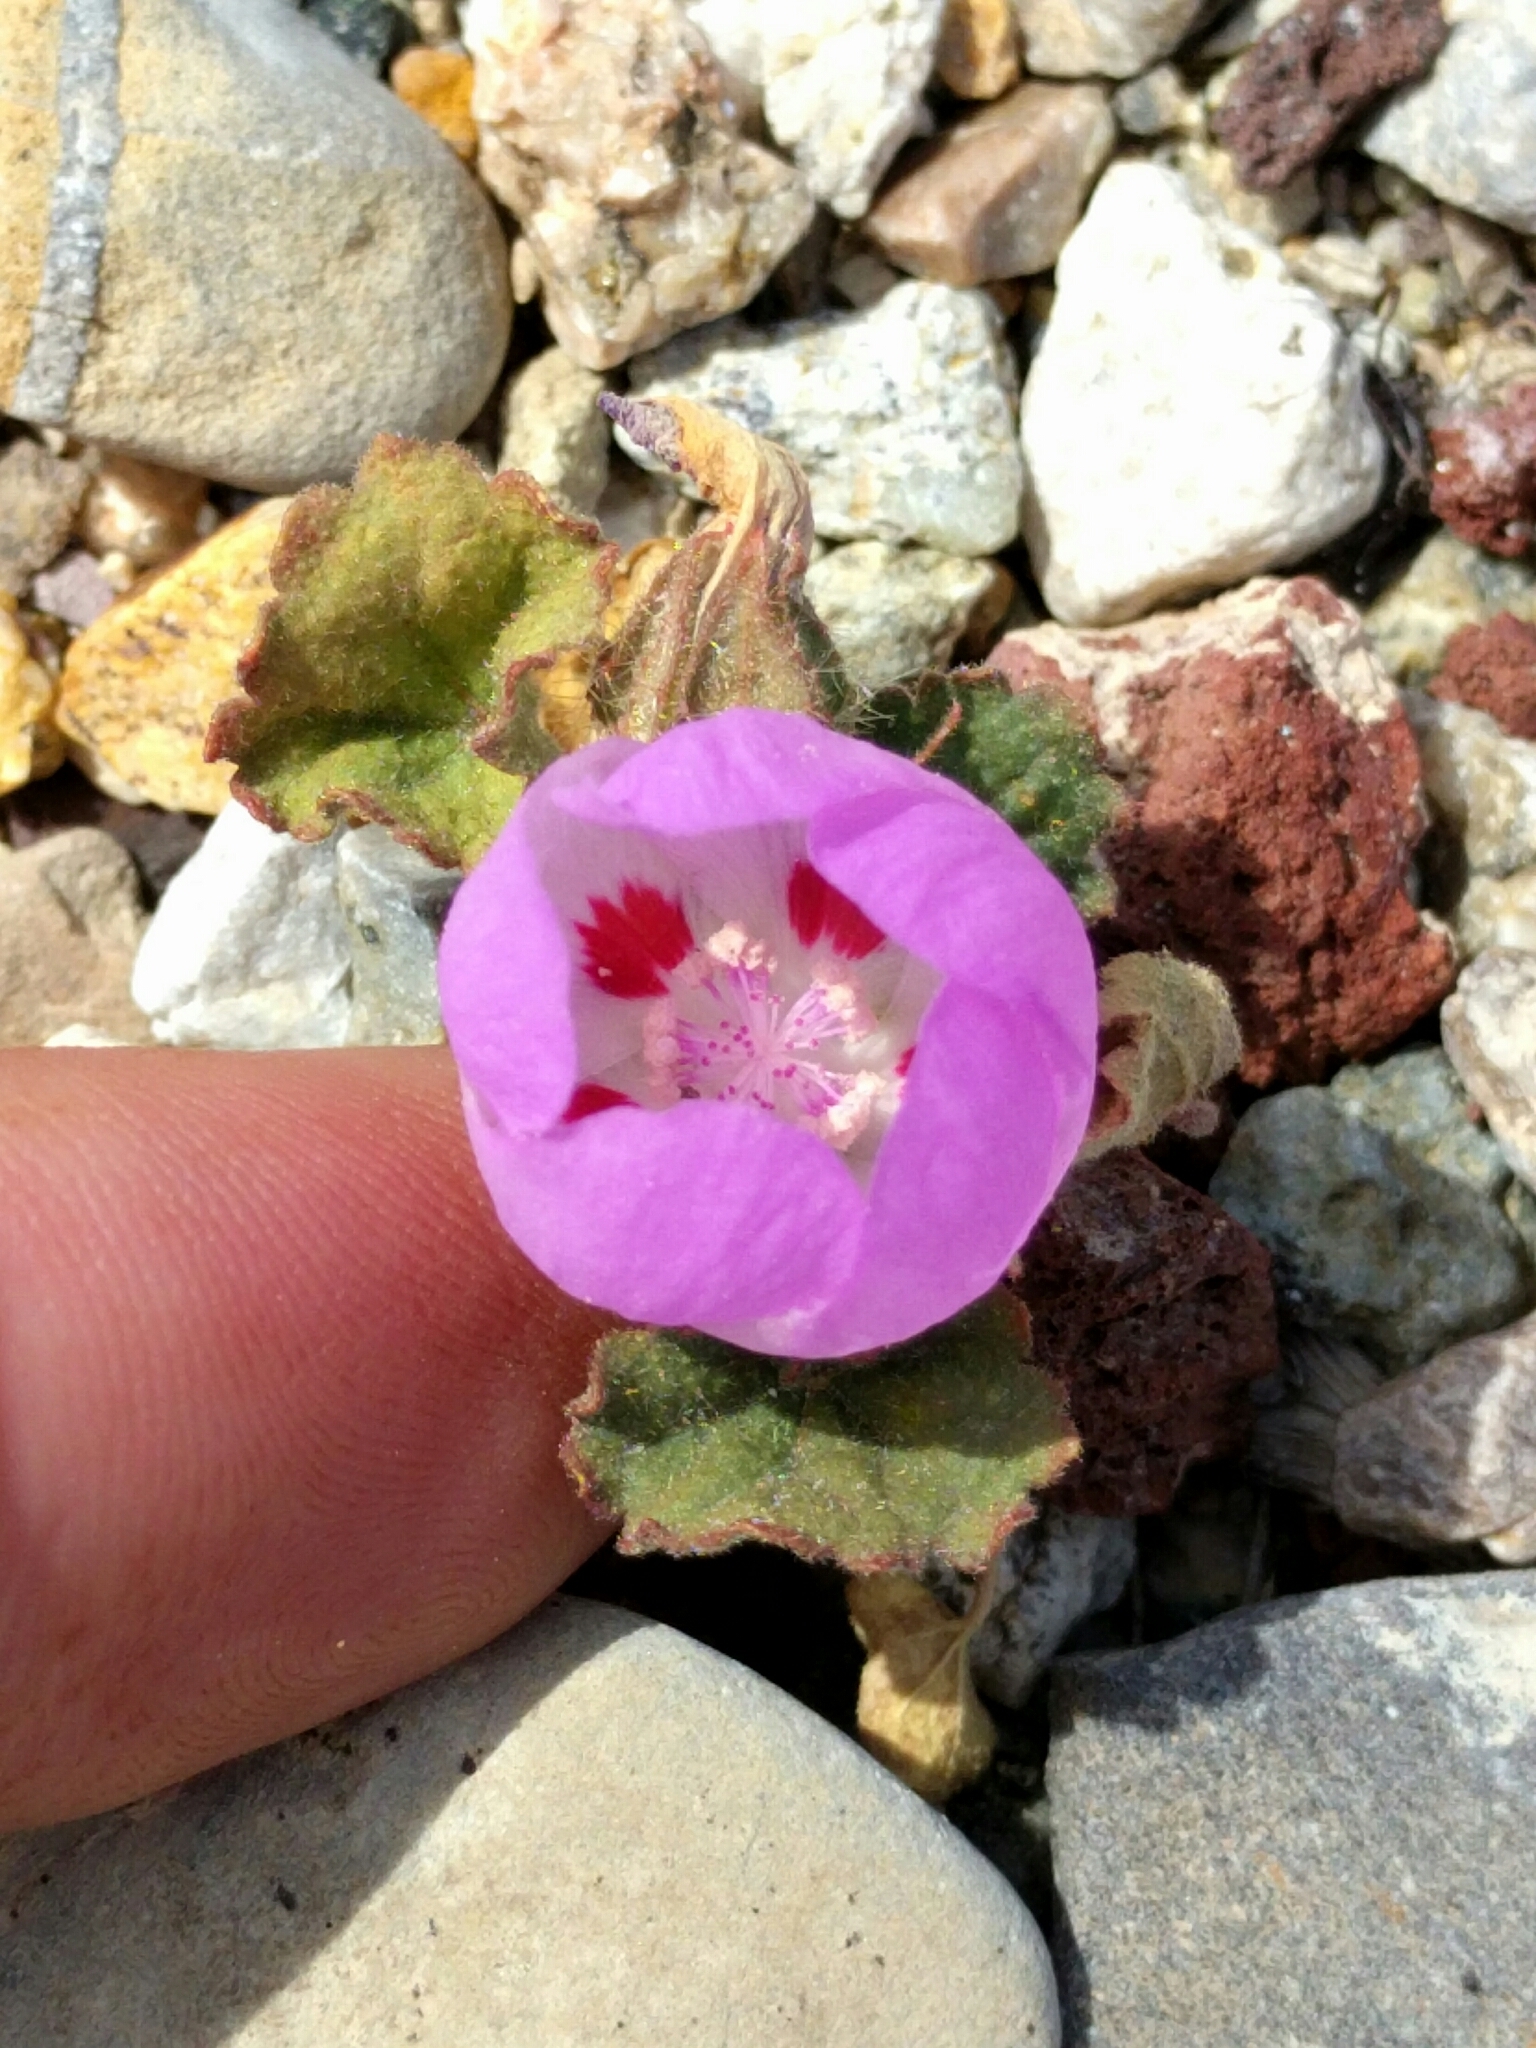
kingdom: Plantae
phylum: Tracheophyta
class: Magnoliopsida
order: Malvales
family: Malvaceae
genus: Eremalche
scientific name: Eremalche rotundifolia
